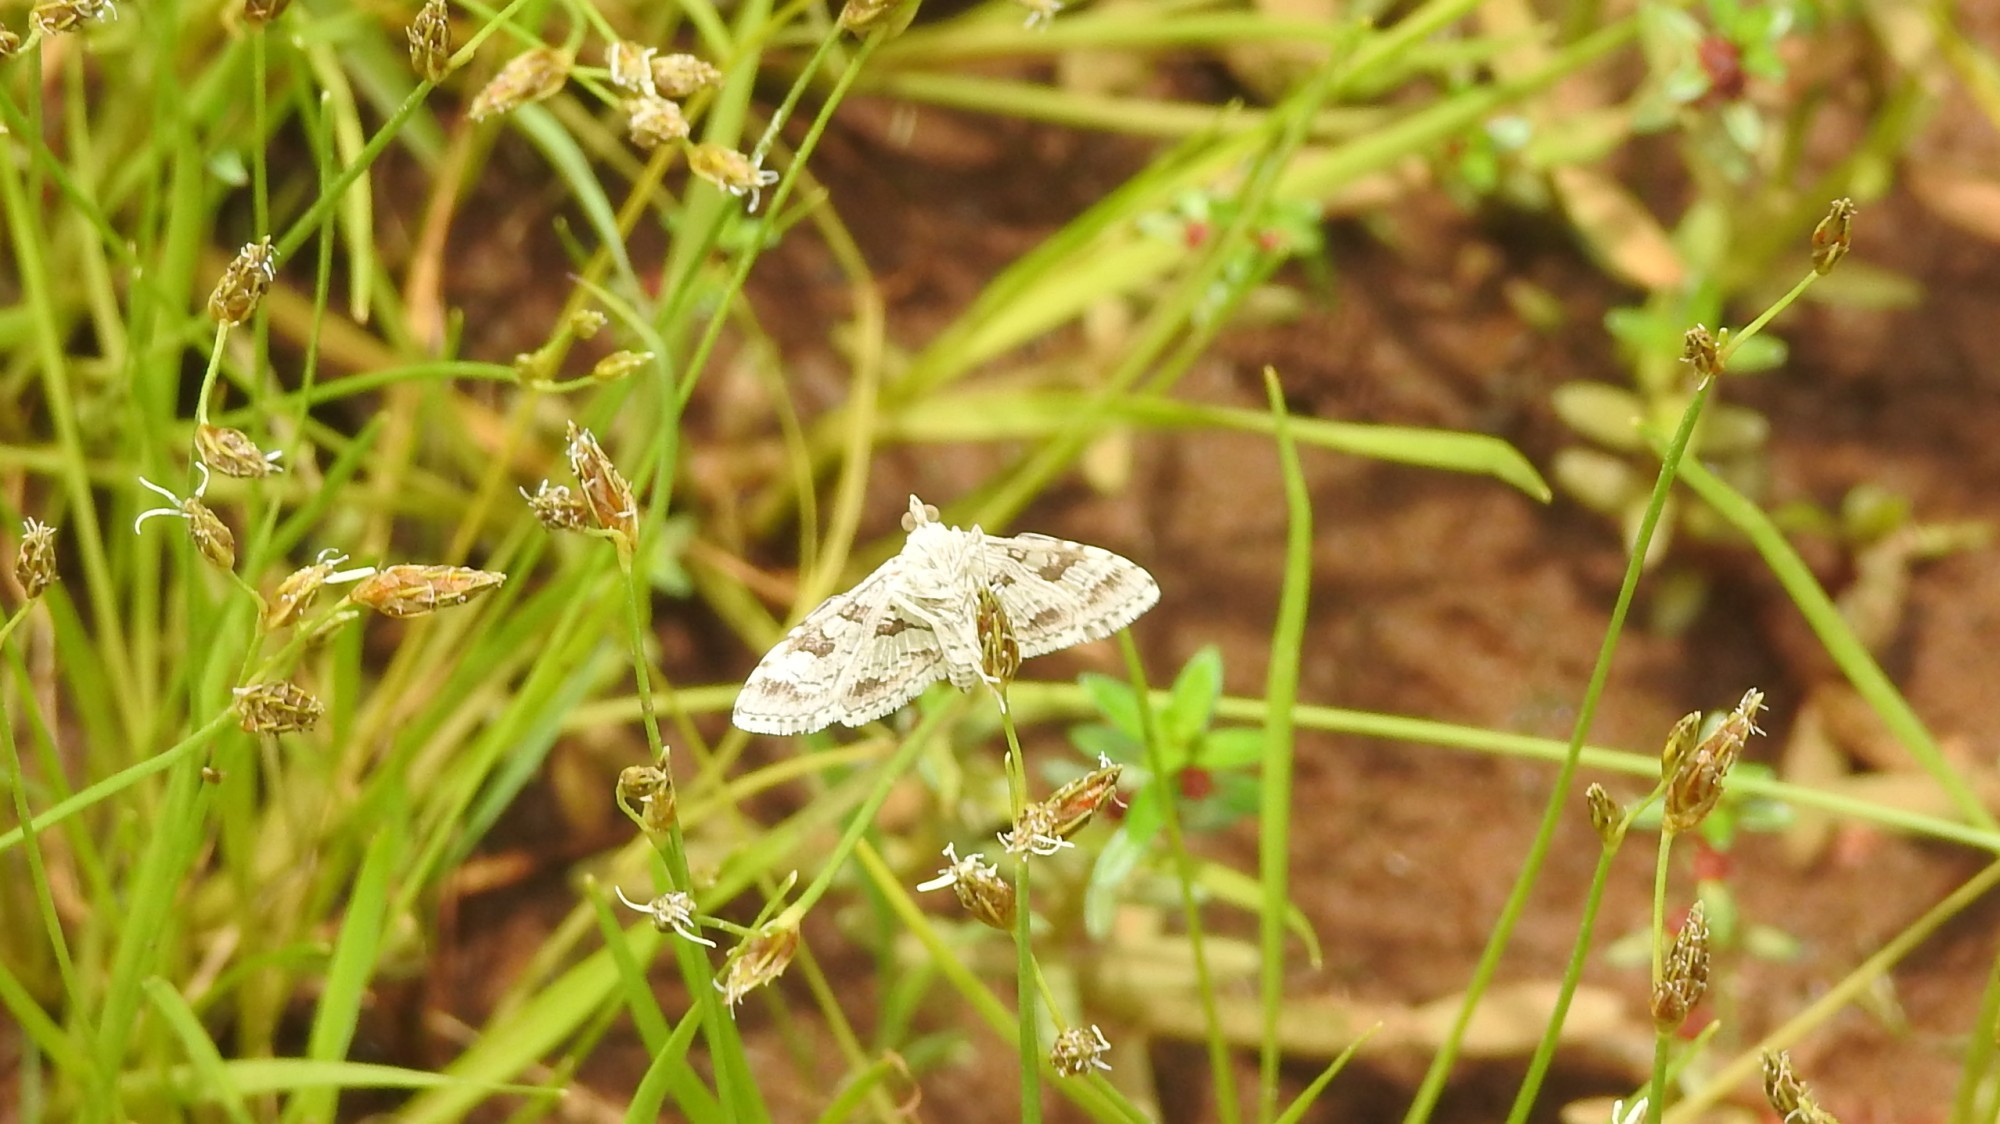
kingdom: Animalia
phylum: Arthropoda
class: Insecta
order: Lepidoptera
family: Crambidae
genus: Sameodes
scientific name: Sameodes cancellalis
